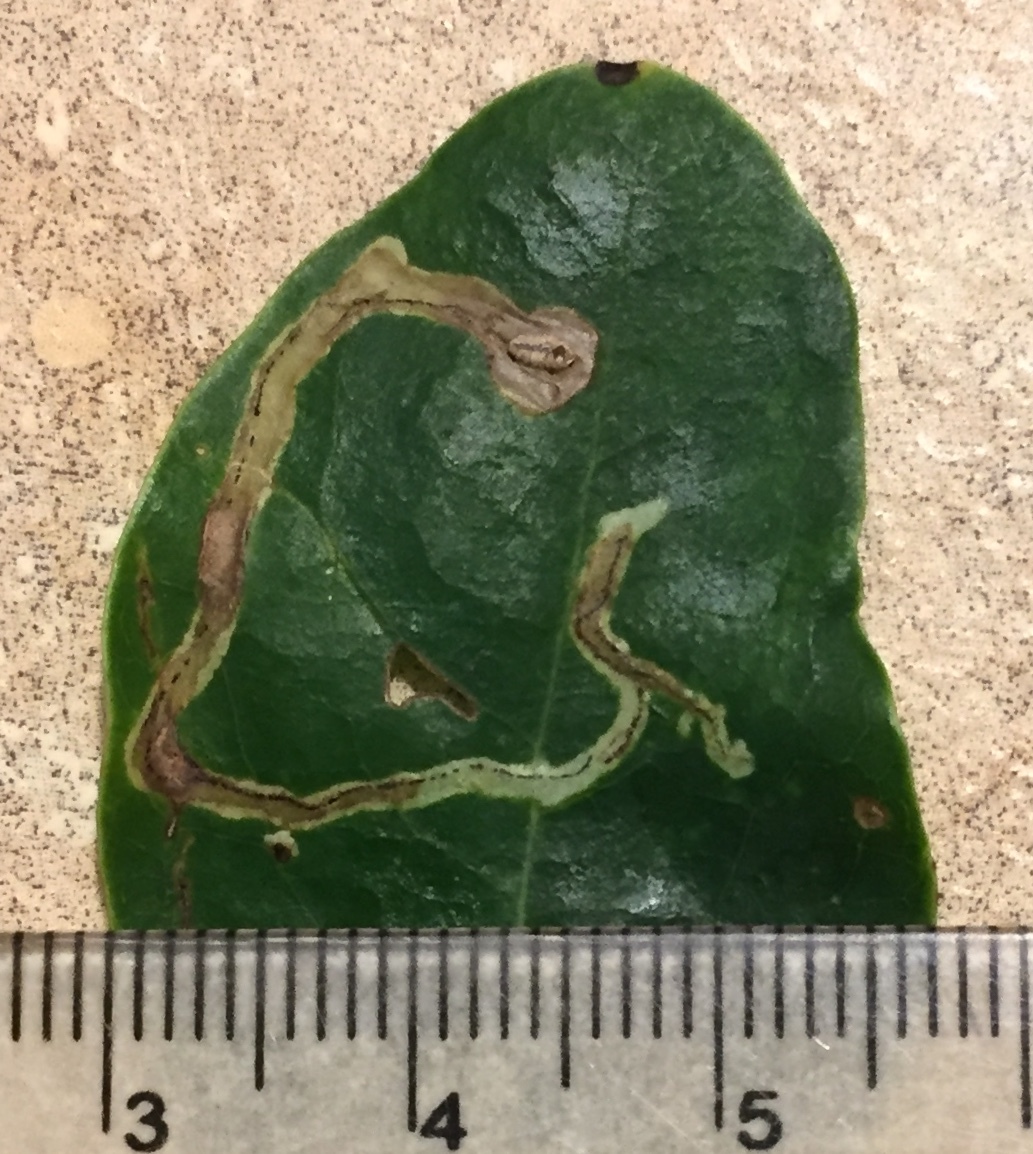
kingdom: Animalia
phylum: Arthropoda
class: Insecta
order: Diptera
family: Agromyzidae
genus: Phytomyza
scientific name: Phytomyza sempervirentis
